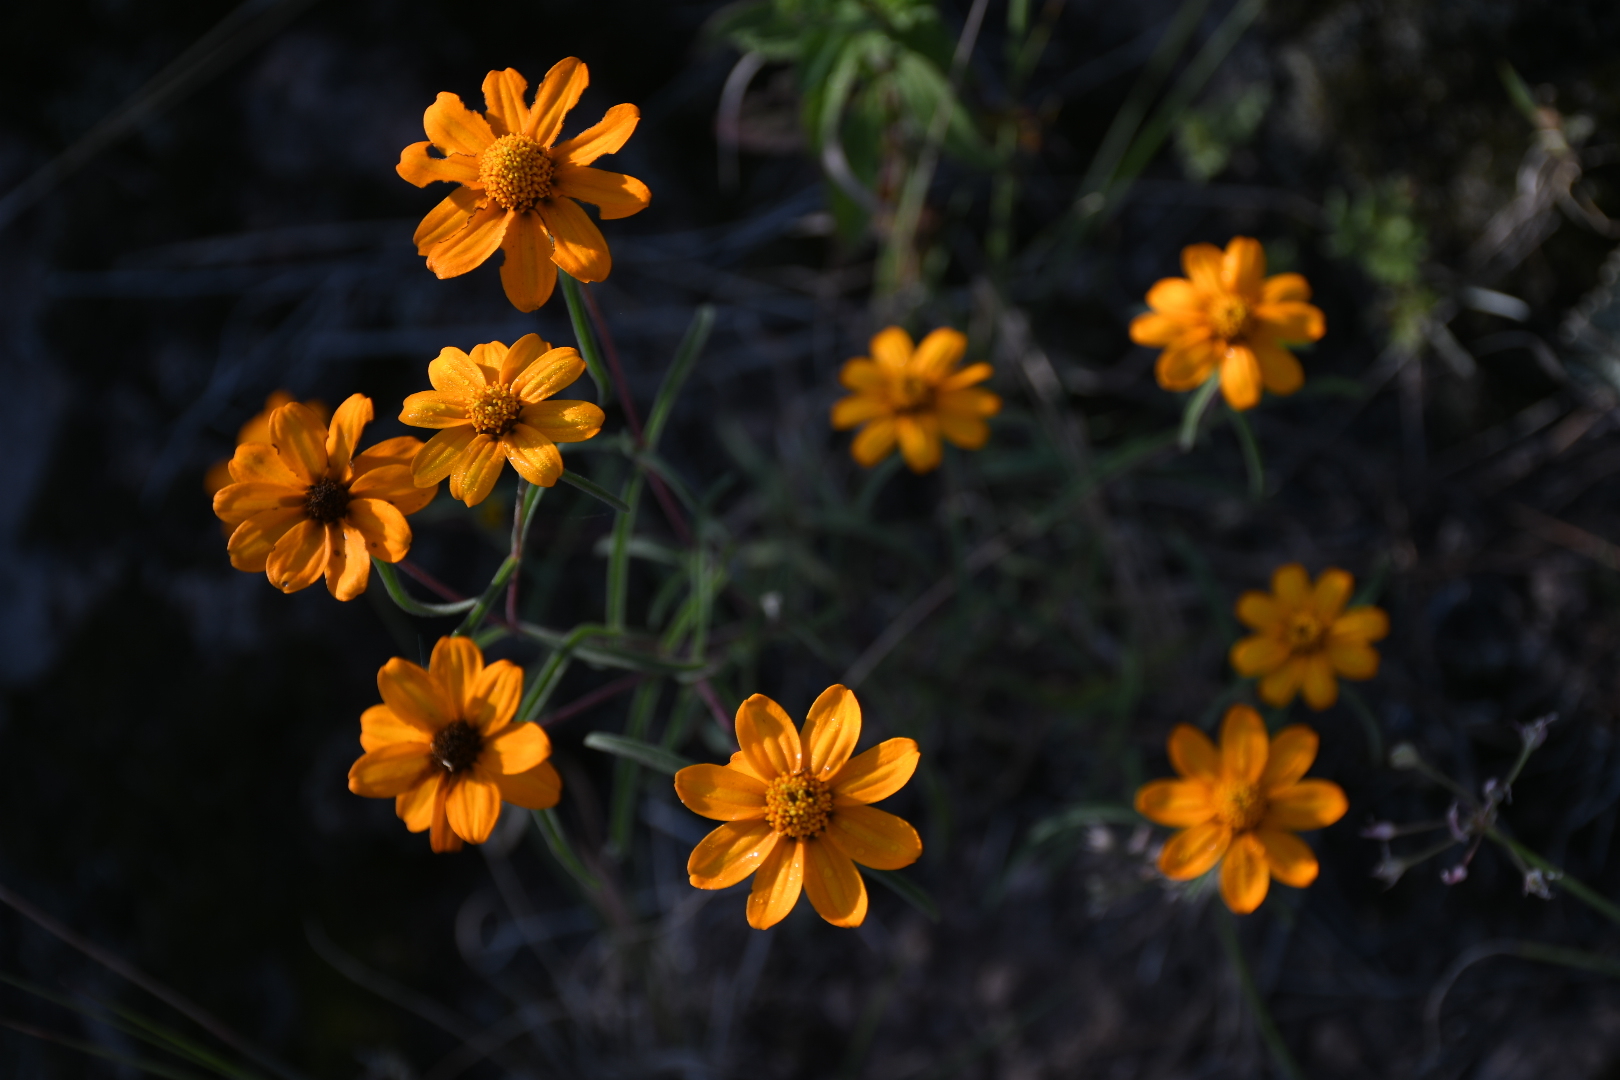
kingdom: Plantae
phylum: Tracheophyta
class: Magnoliopsida
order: Asterales
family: Asteraceae
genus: Zinnia
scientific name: Zinnia angustifolia
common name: Narrowleaf zinnia
